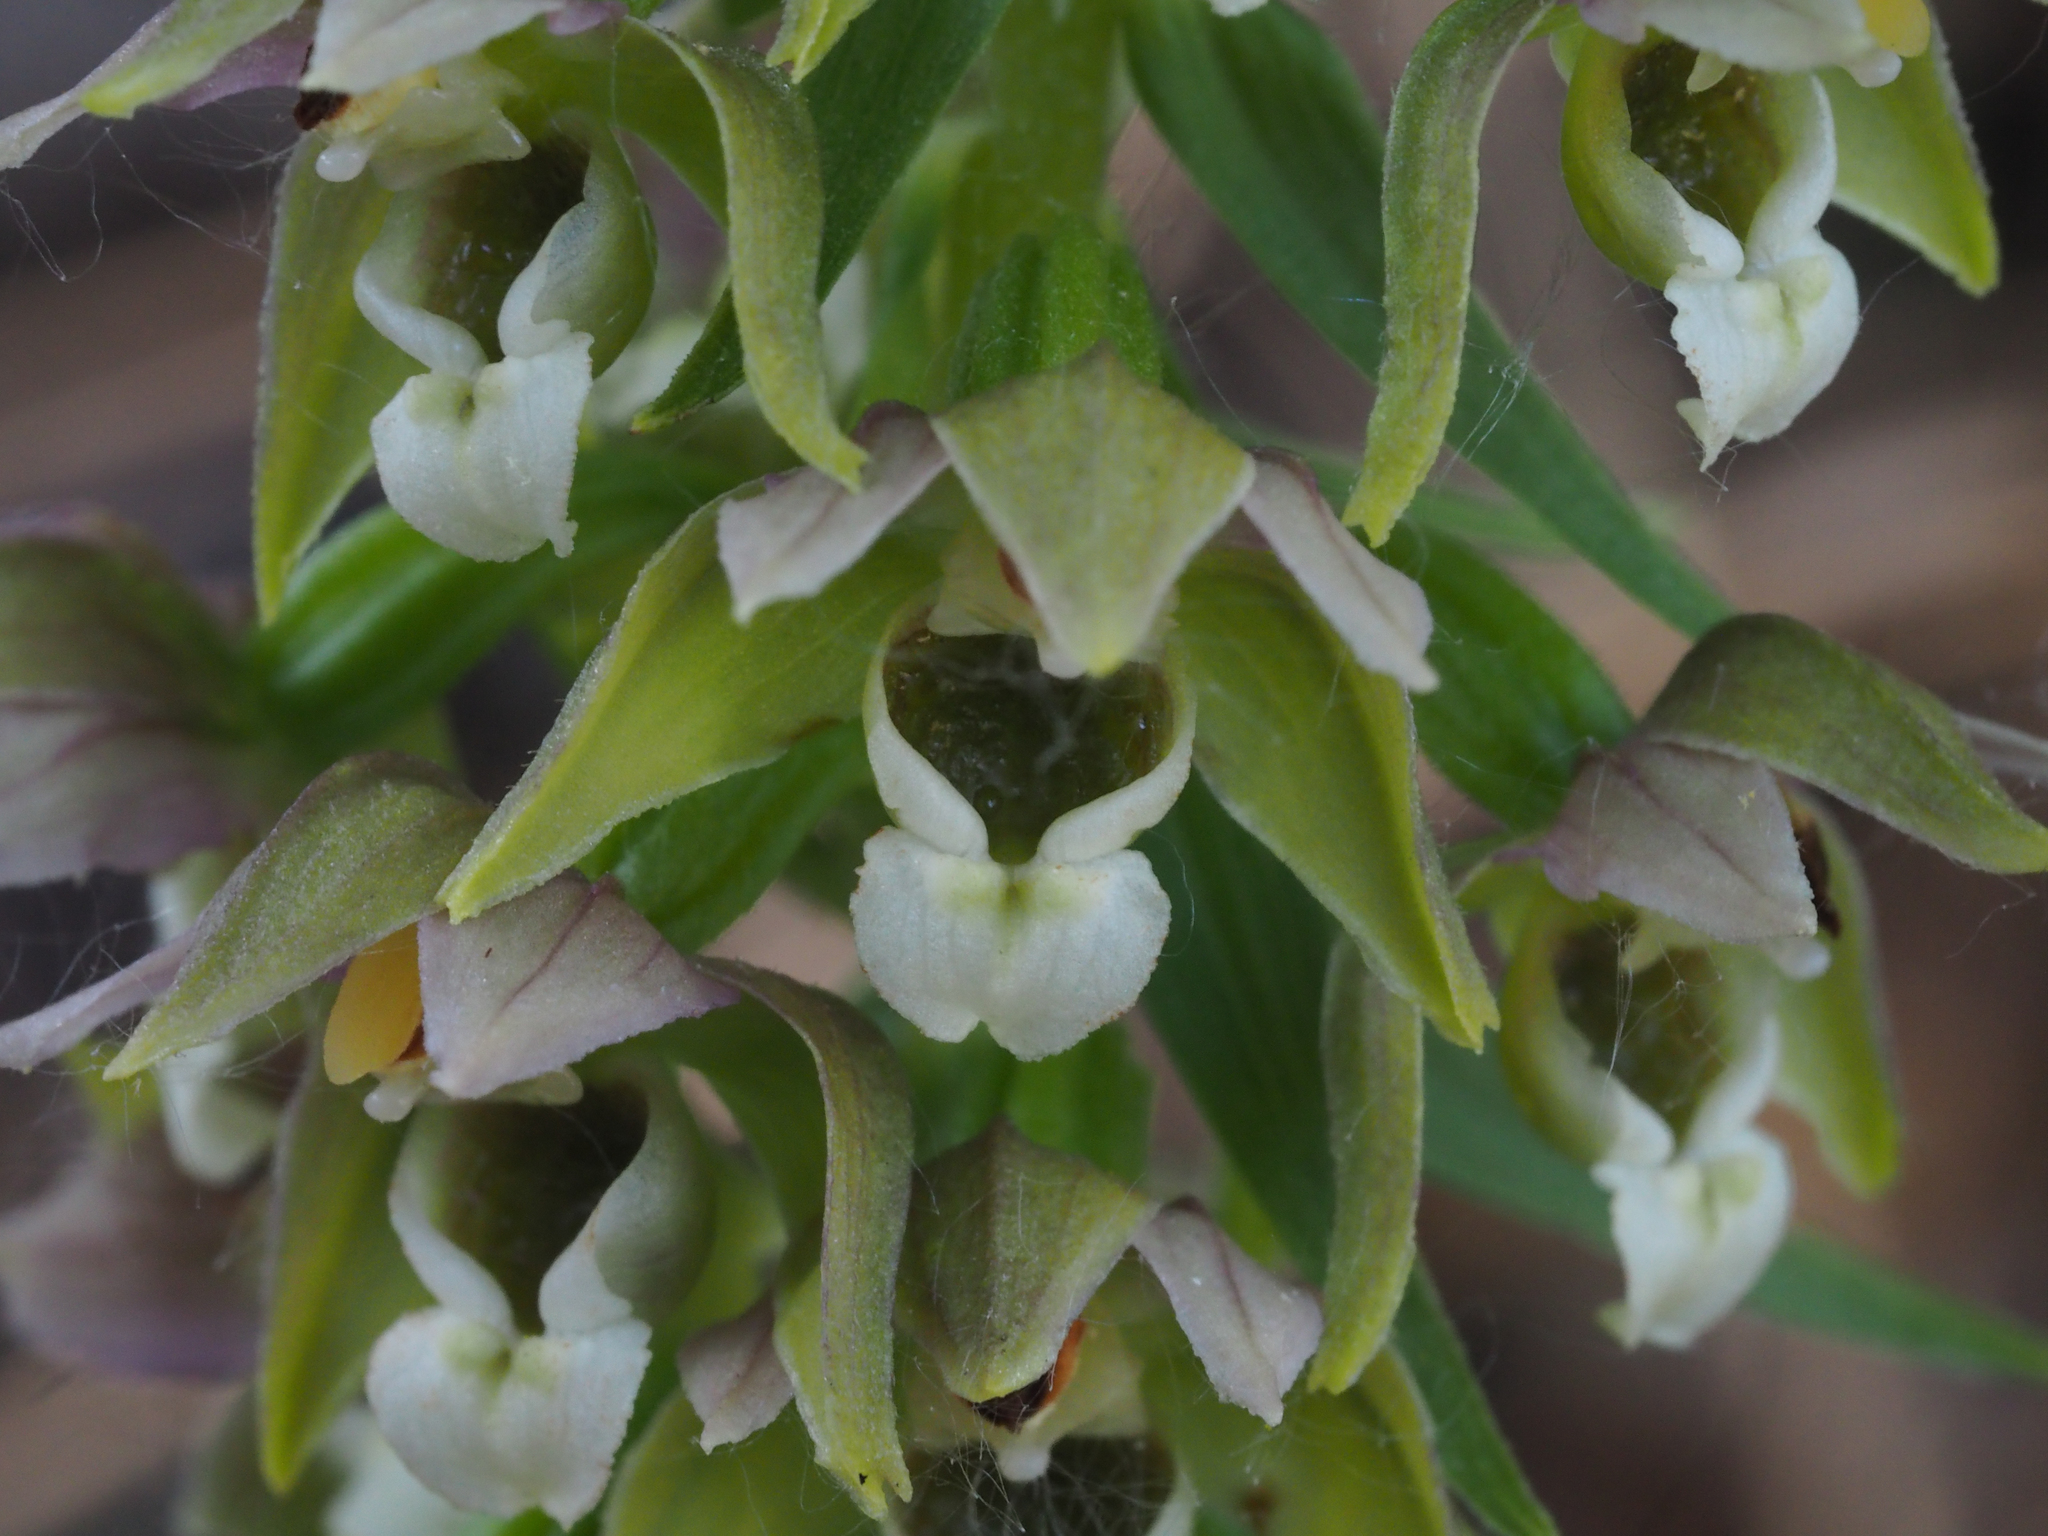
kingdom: Plantae
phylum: Tracheophyta
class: Liliopsida
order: Asparagales
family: Orchidaceae
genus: Epipactis
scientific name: Epipactis bugacensis
